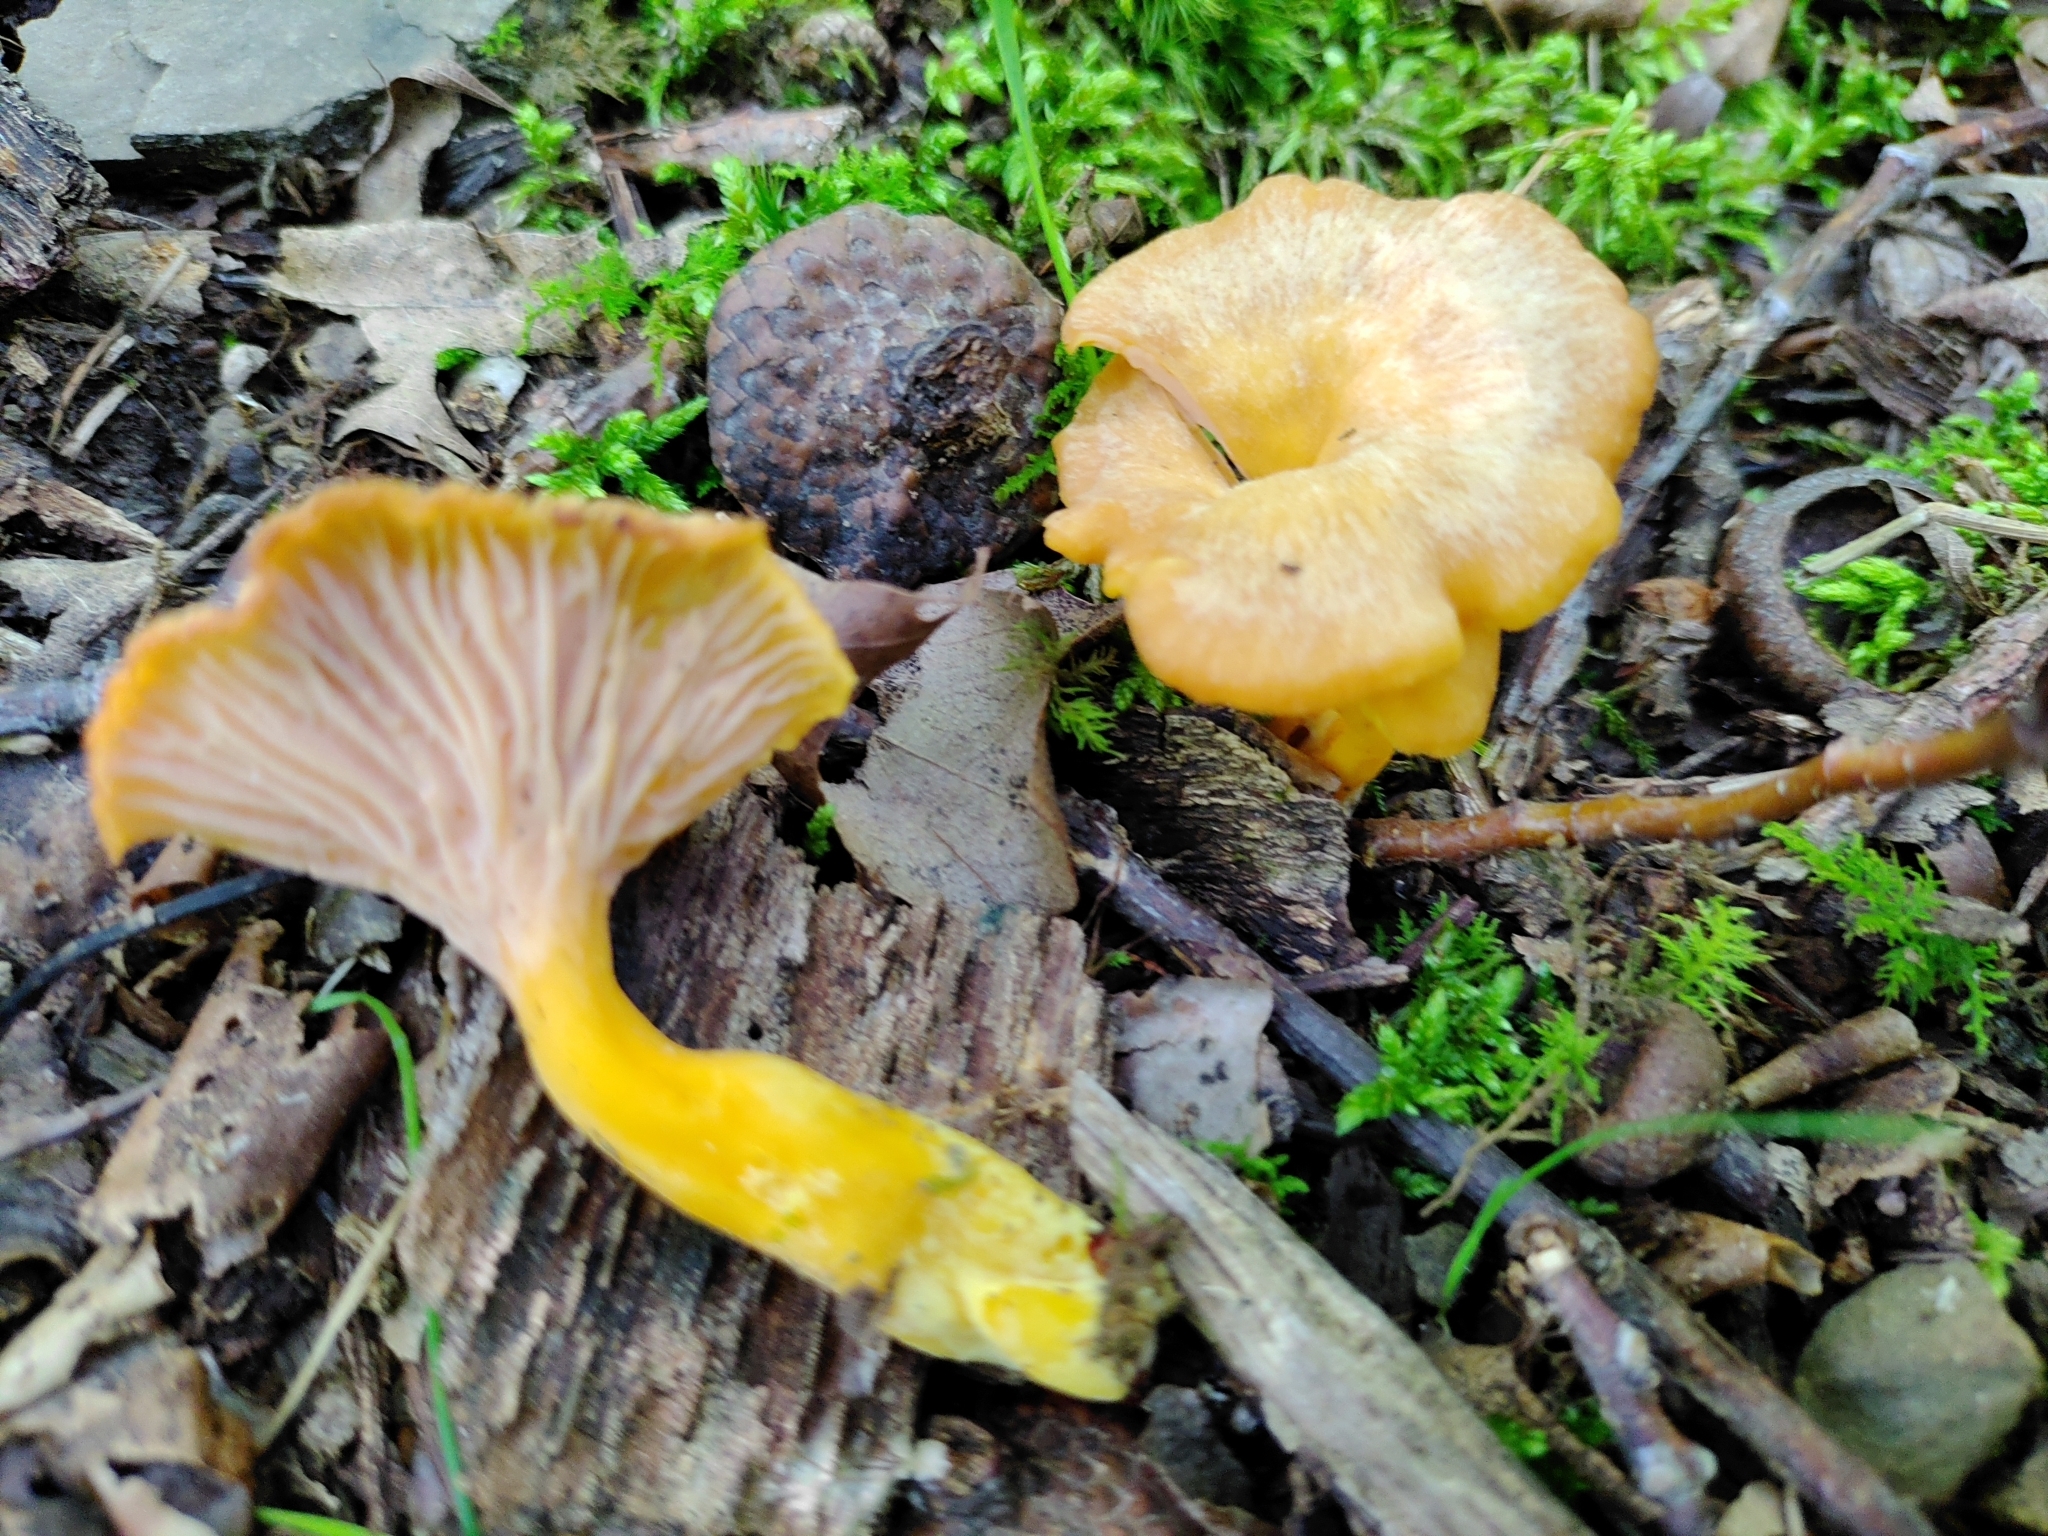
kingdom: Fungi
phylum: Basidiomycota
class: Agaricomycetes
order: Cantharellales
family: Hydnaceae
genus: Craterellus
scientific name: Craterellus ignicolor
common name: Flame chanterelle
